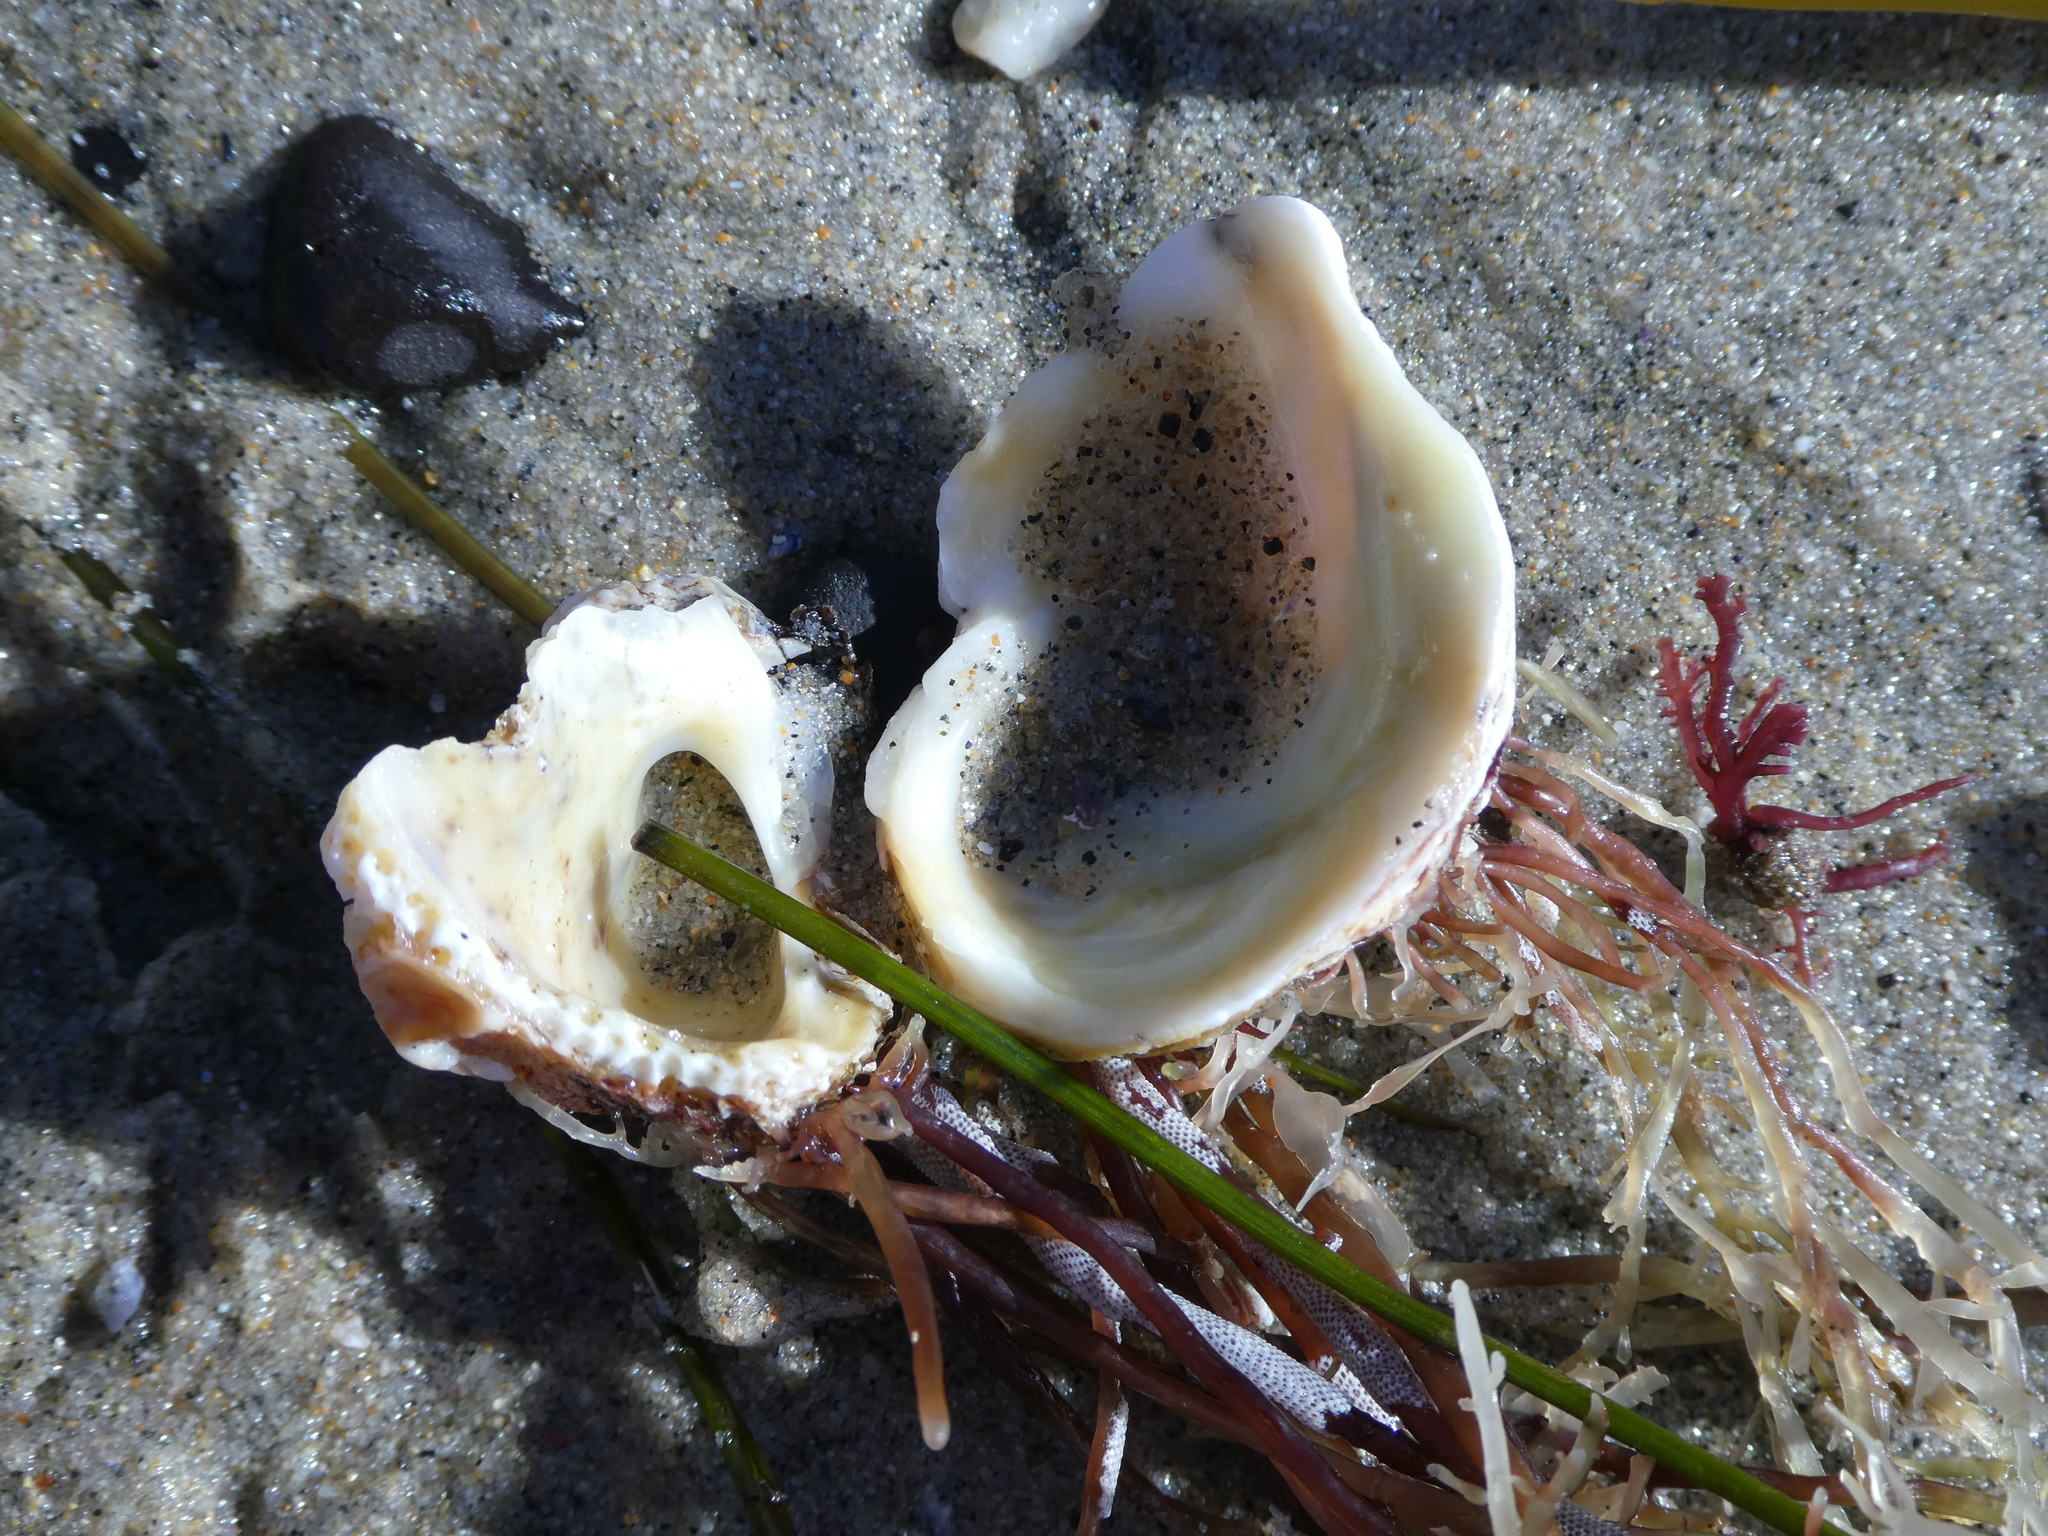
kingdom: Animalia
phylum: Mollusca
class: Bivalvia
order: Venerida
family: Chamidae
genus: Pseudochama
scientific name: Pseudochama exogyra
